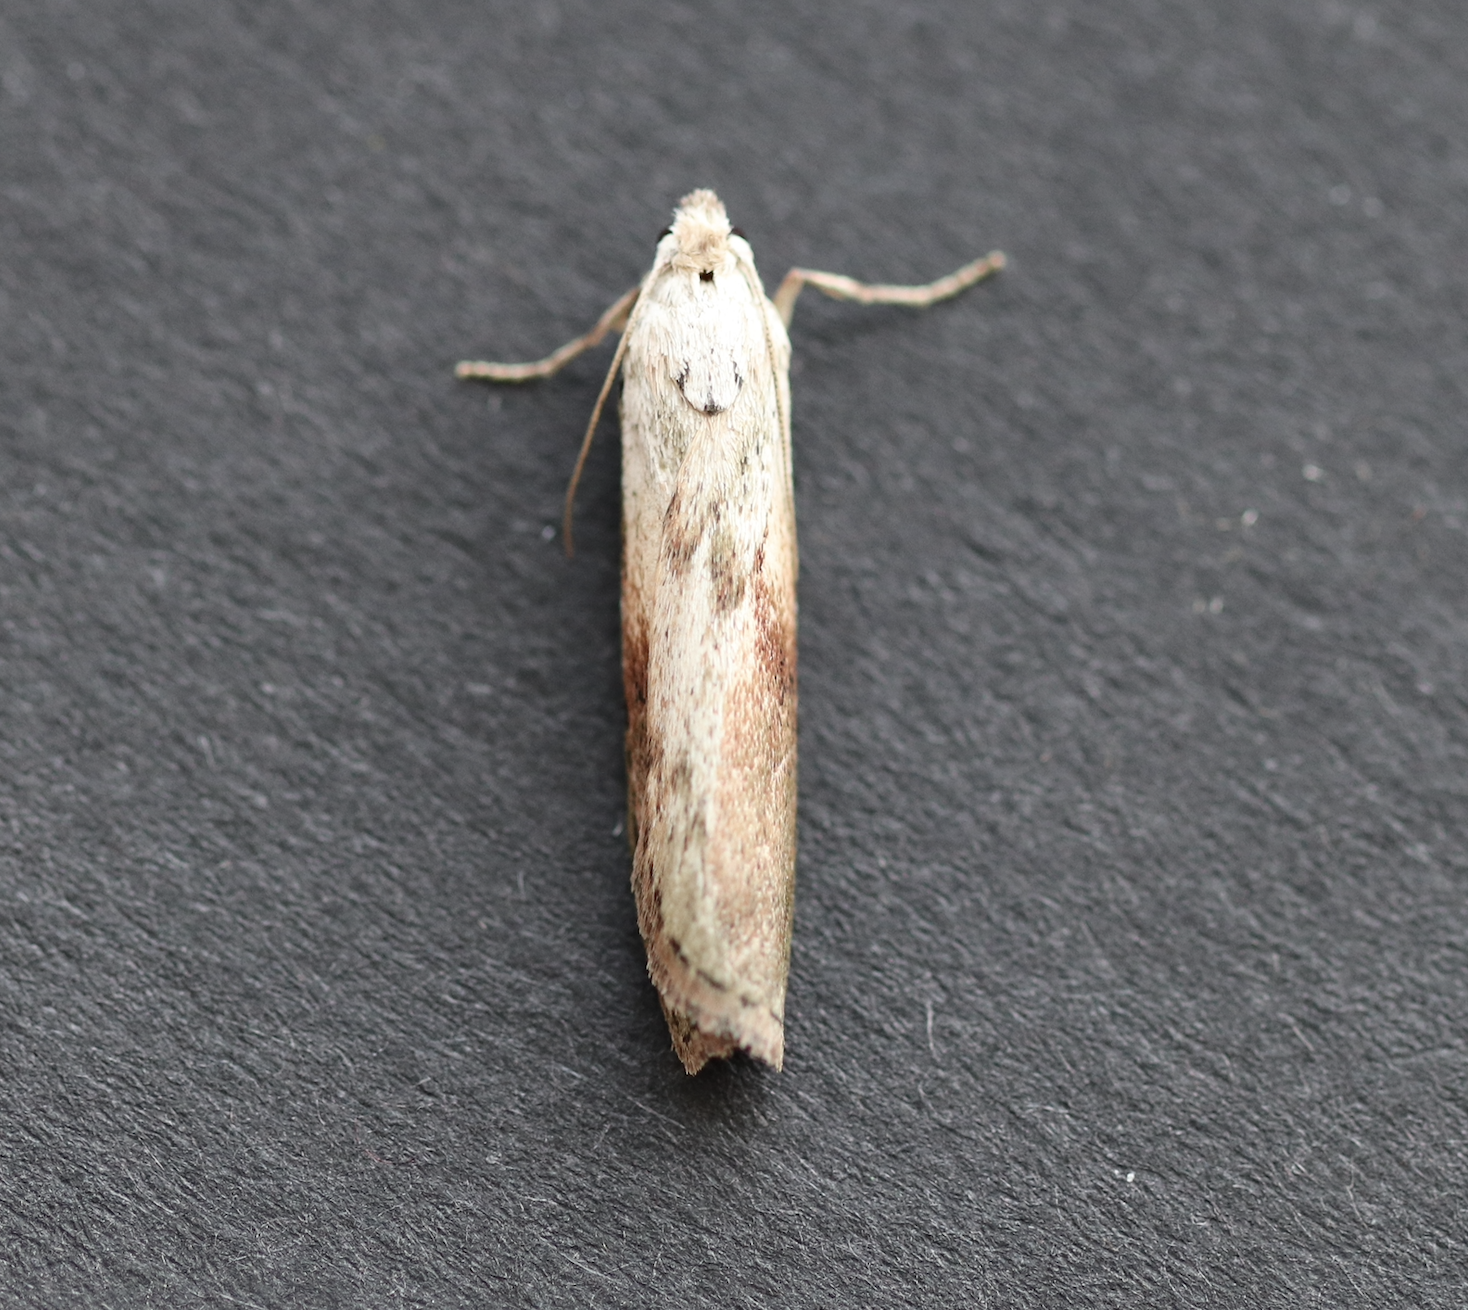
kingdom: Animalia
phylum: Arthropoda
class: Insecta
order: Lepidoptera
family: Pyralidae
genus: Aphomia
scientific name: Aphomia sociella
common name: Bee moth
